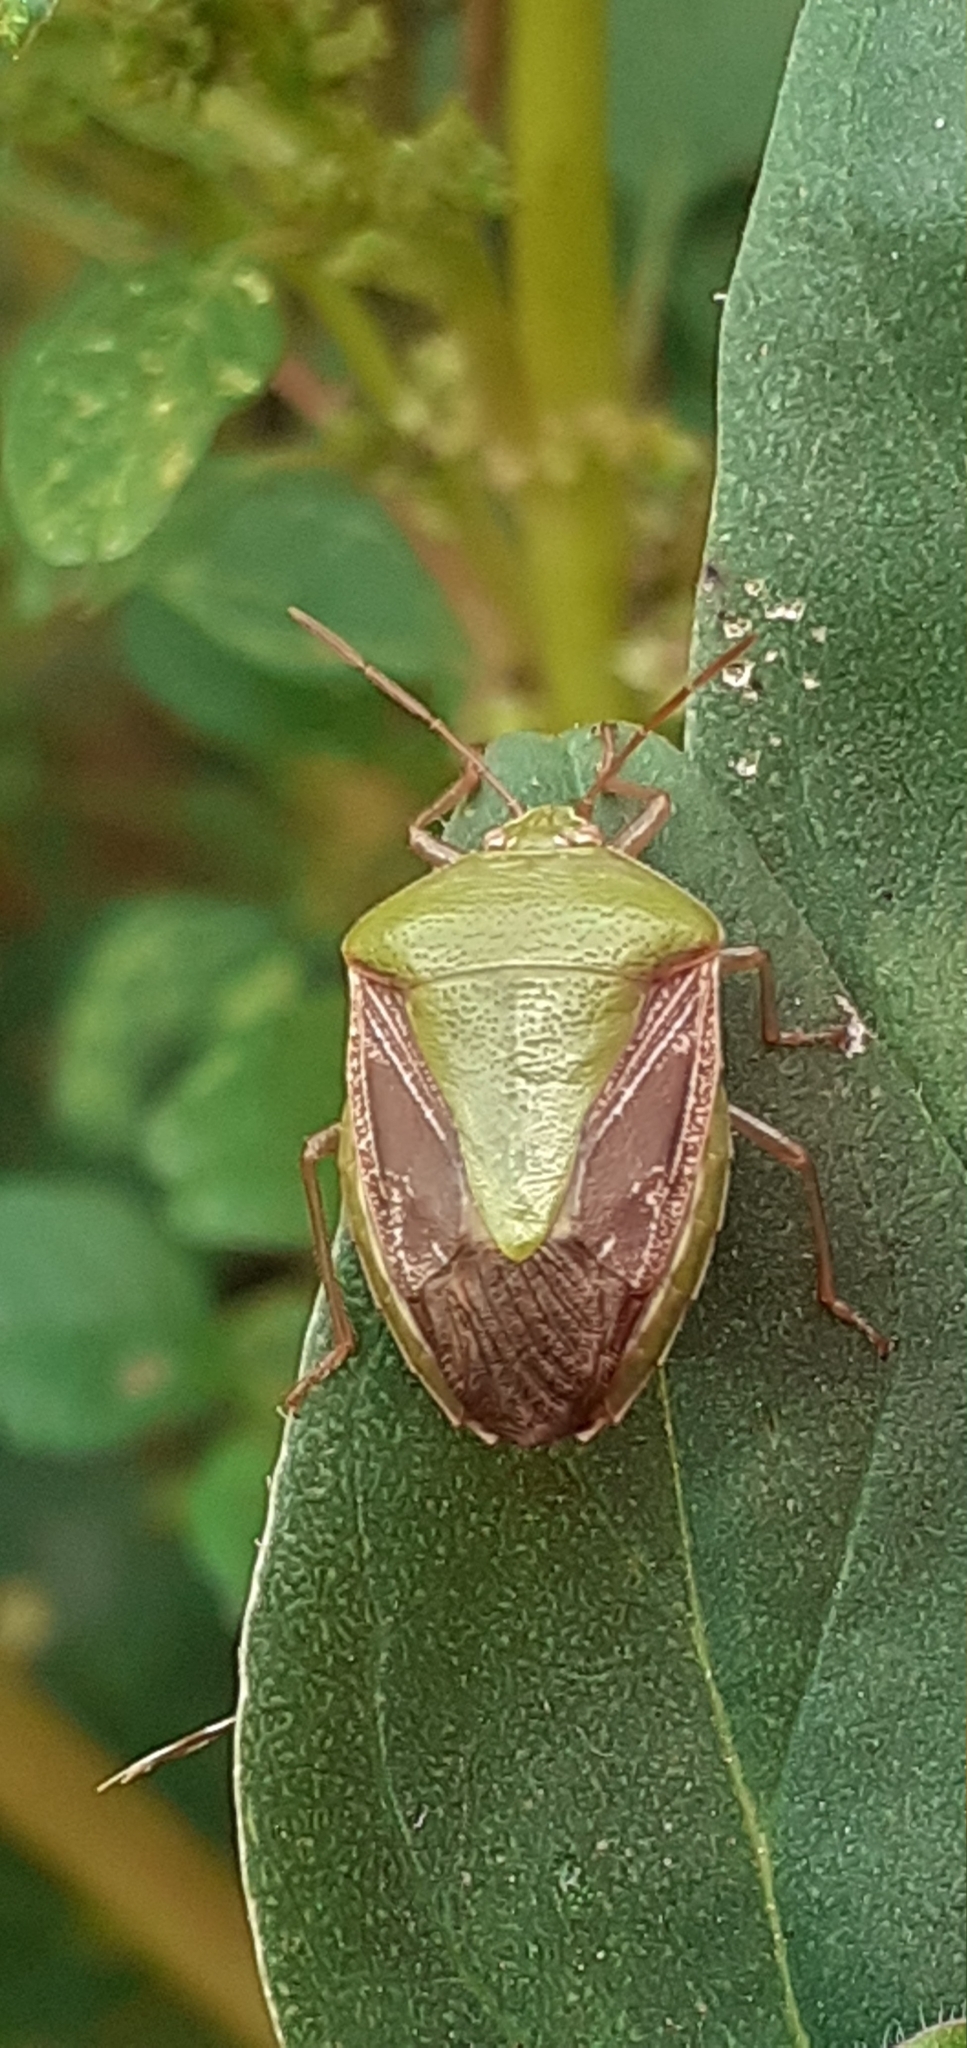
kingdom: Animalia
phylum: Arthropoda
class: Insecta
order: Hemiptera
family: Pentatomidae
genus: Edessa
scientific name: Edessa meditabunda
